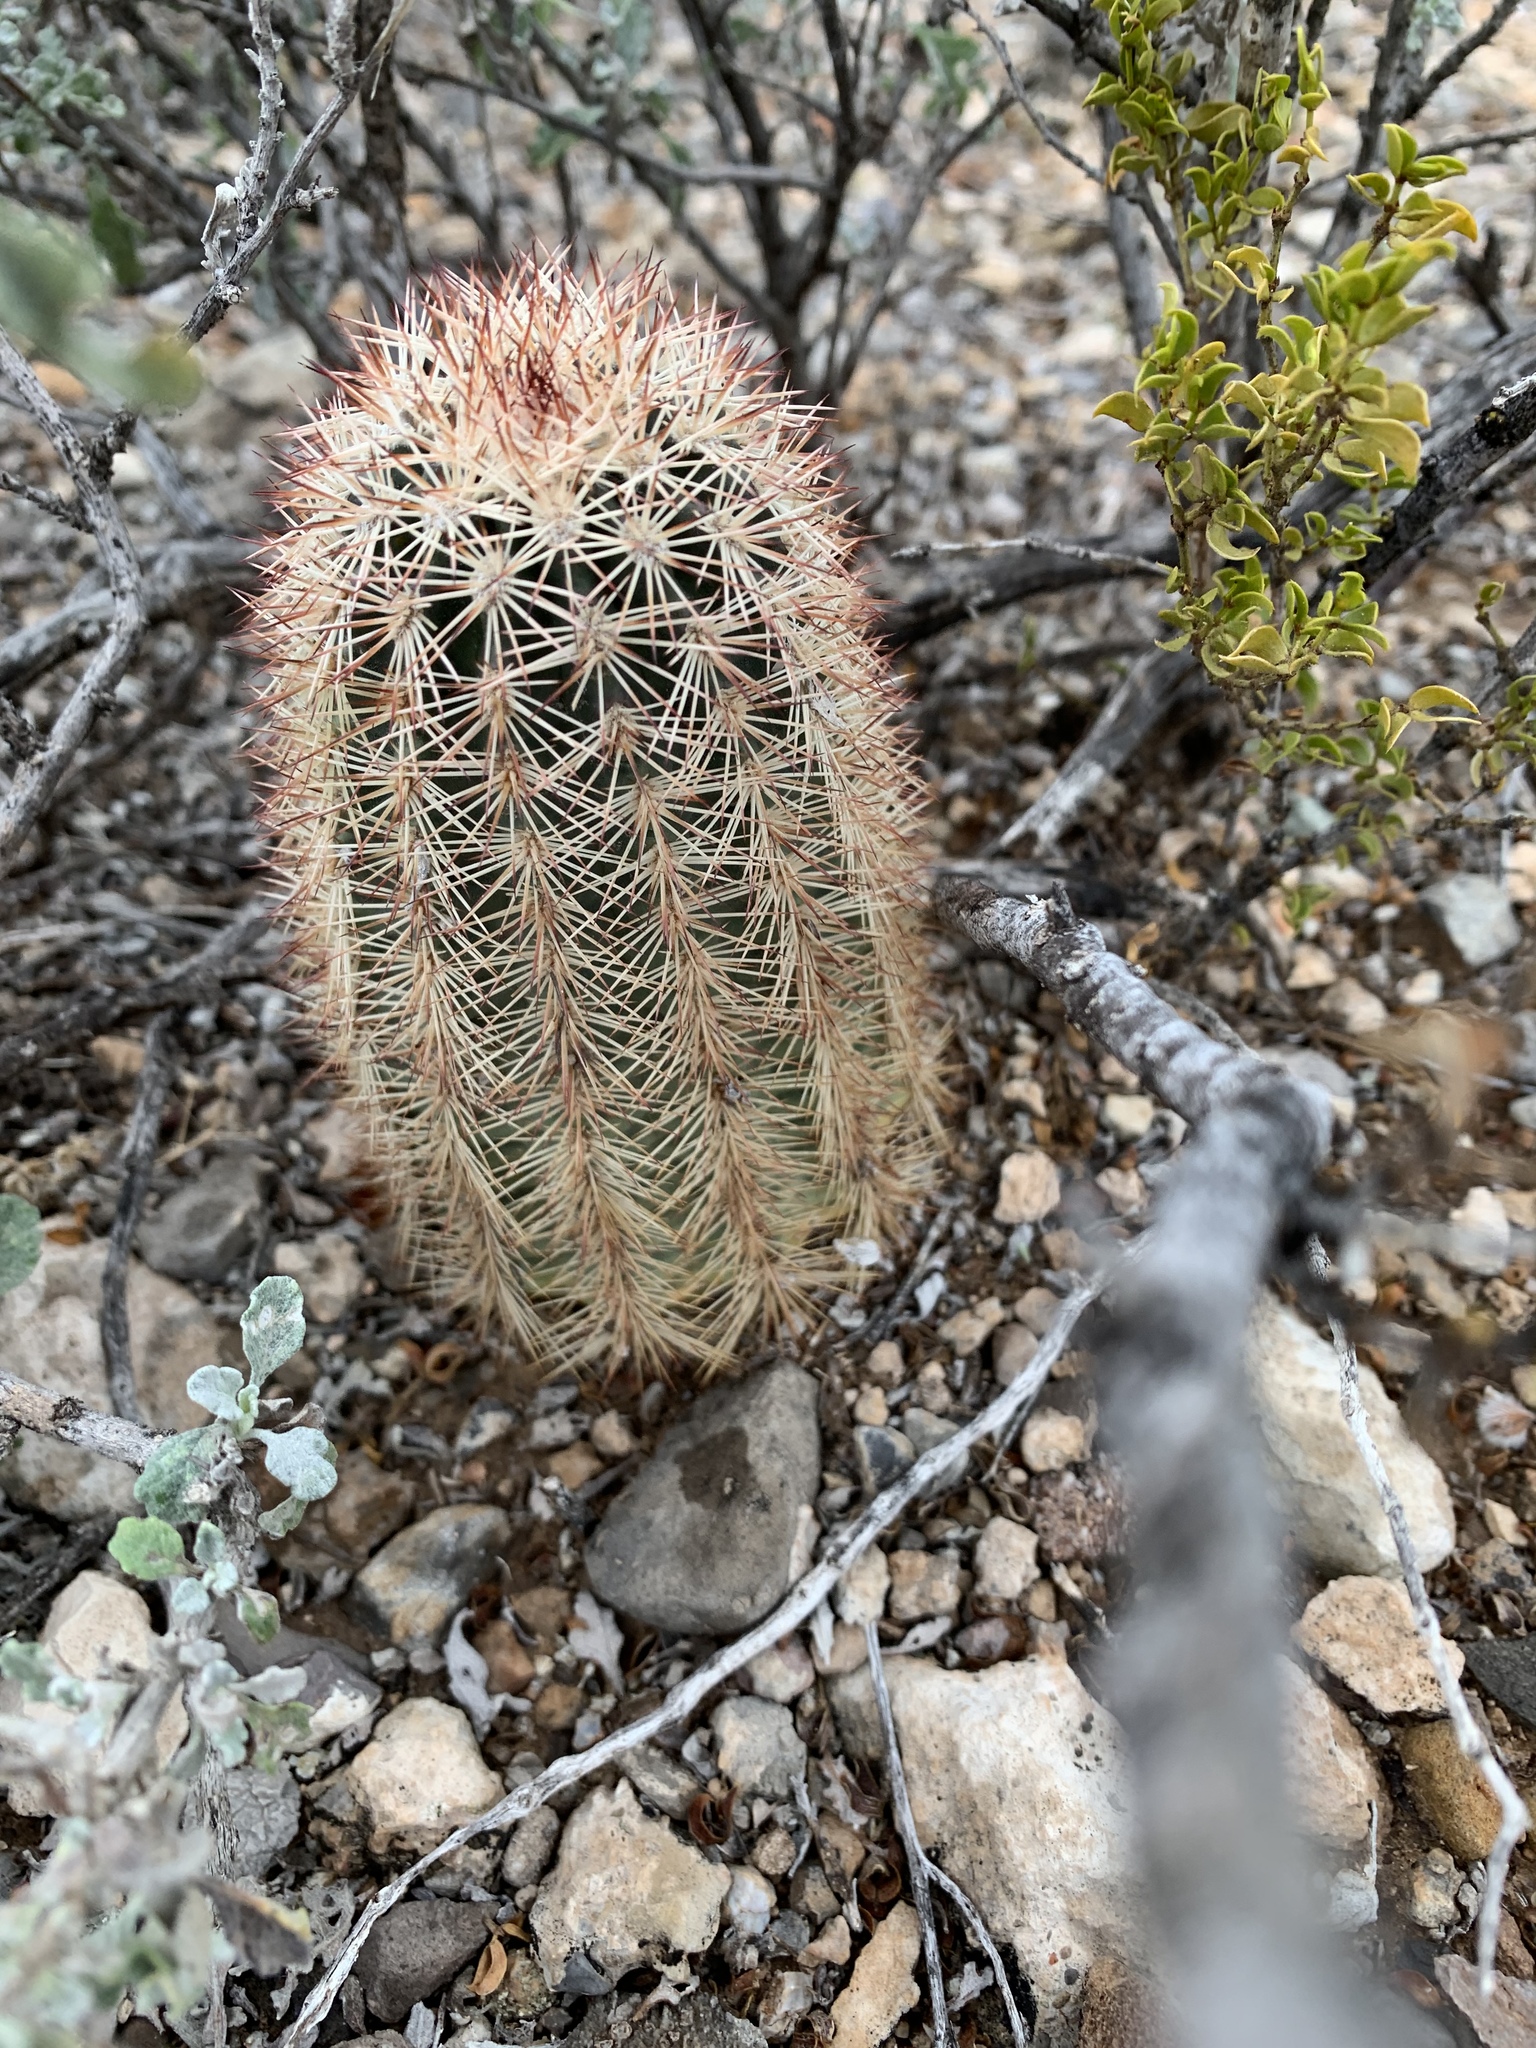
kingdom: Plantae
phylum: Tracheophyta
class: Magnoliopsida
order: Caryophyllales
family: Cactaceae
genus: Echinocereus
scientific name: Echinocereus dasyacanthus
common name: Spiny hedgehog cactus
